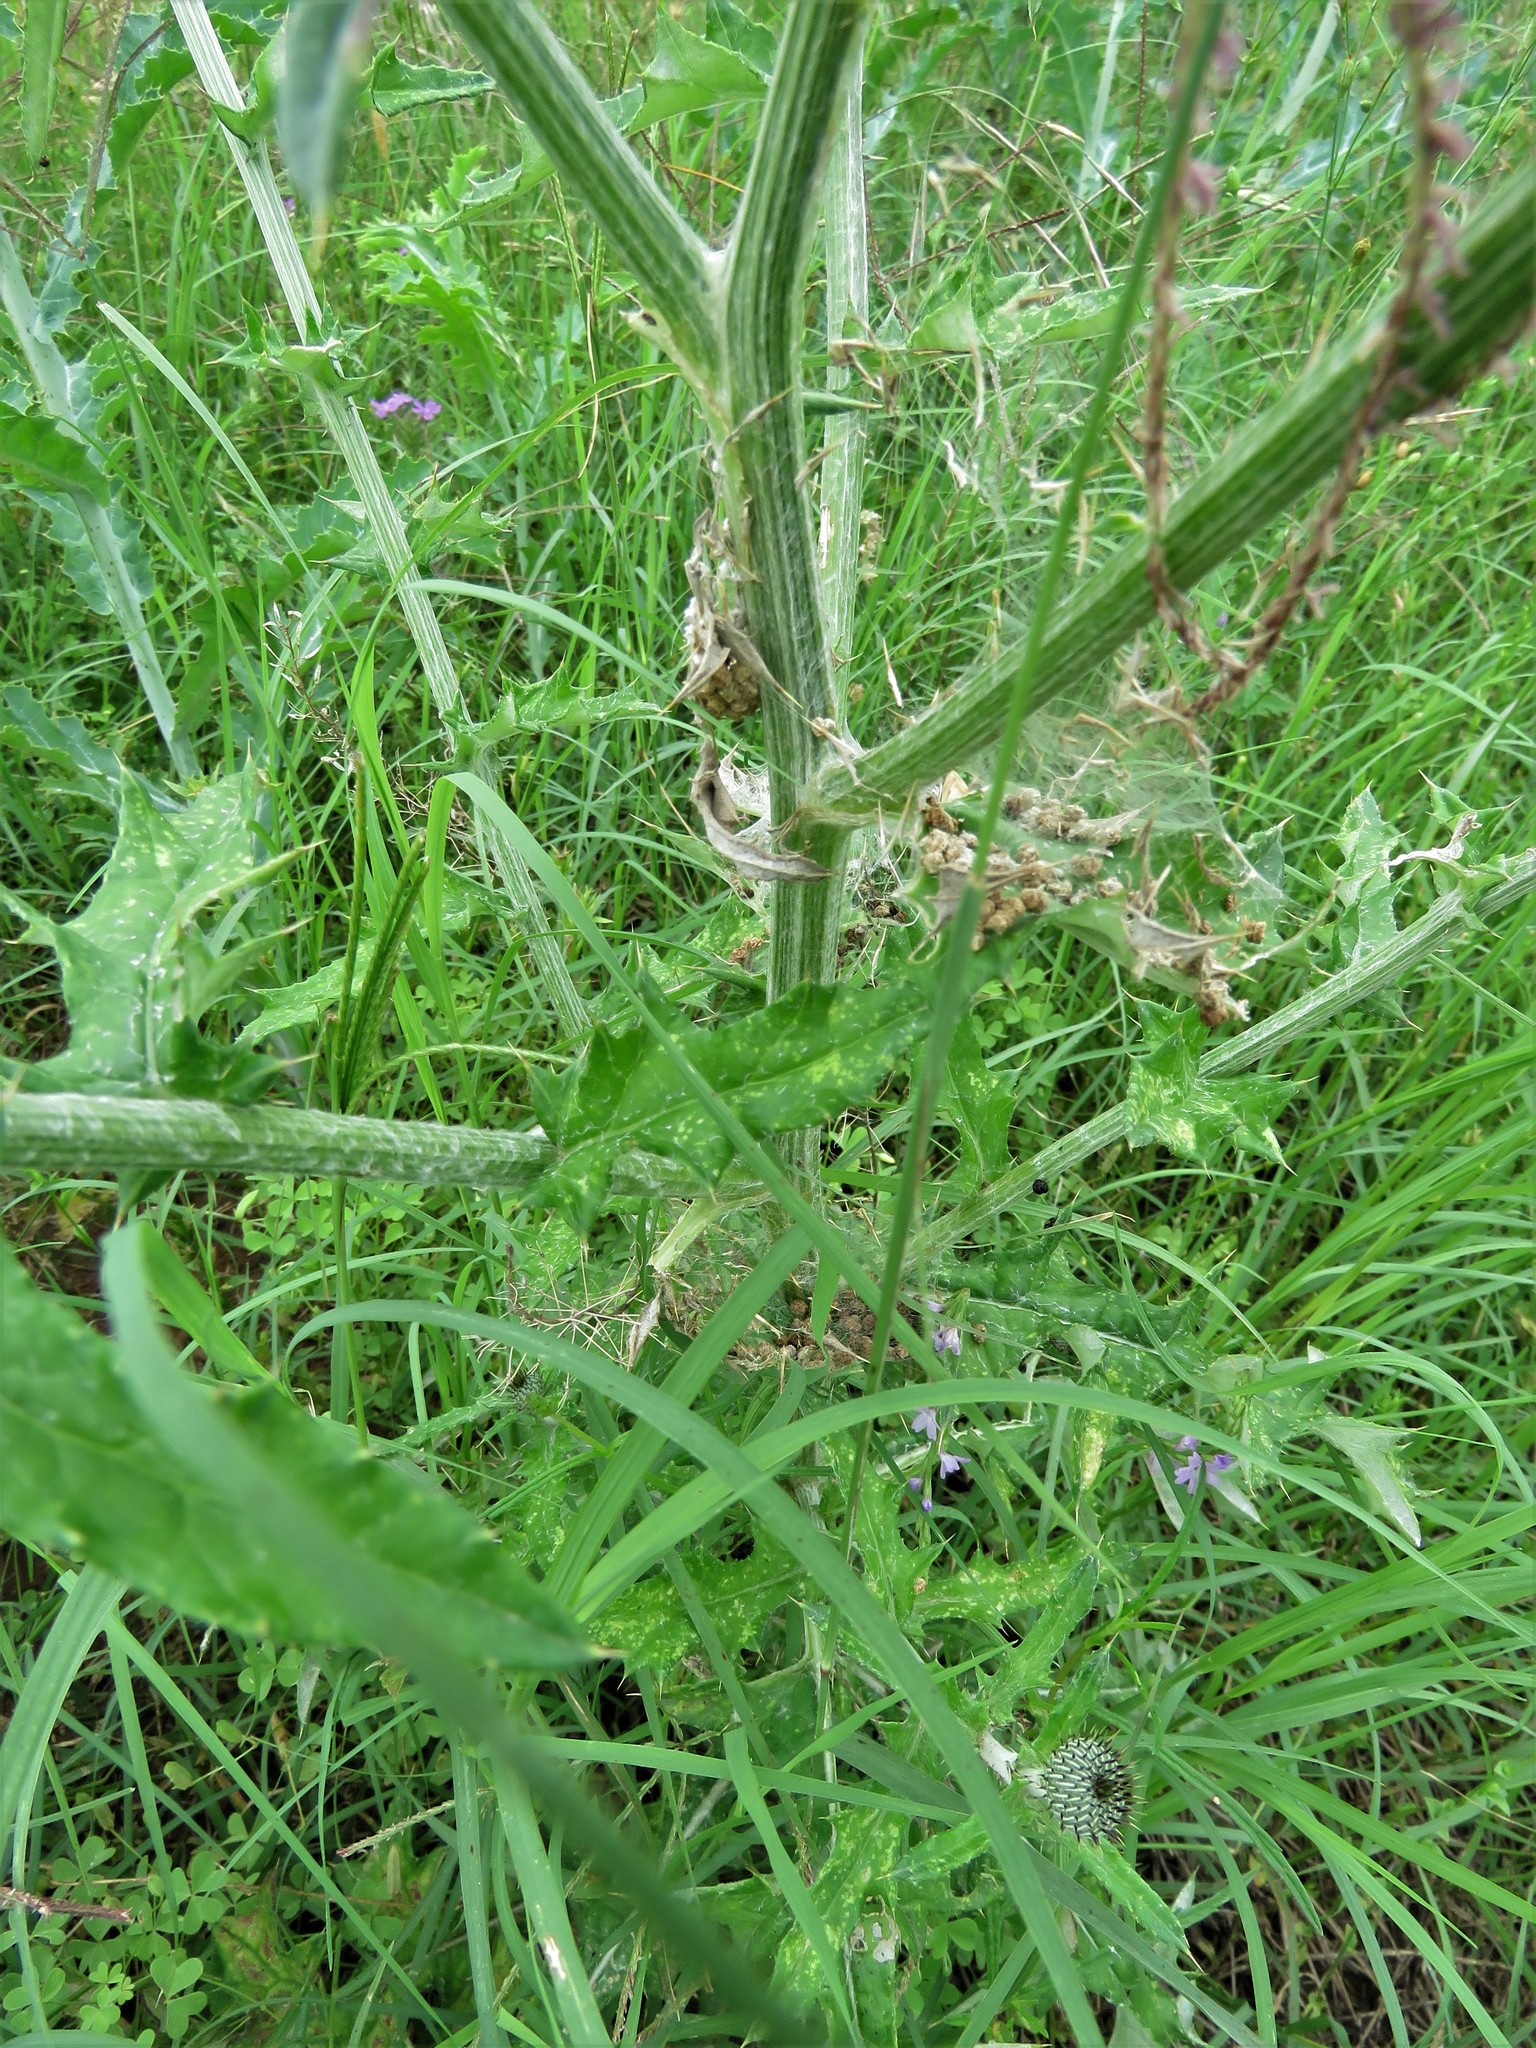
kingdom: Plantae
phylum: Tracheophyta
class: Magnoliopsida
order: Asterales
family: Asteraceae
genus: Cirsium
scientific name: Cirsium texanum
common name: Texas purple thistle
